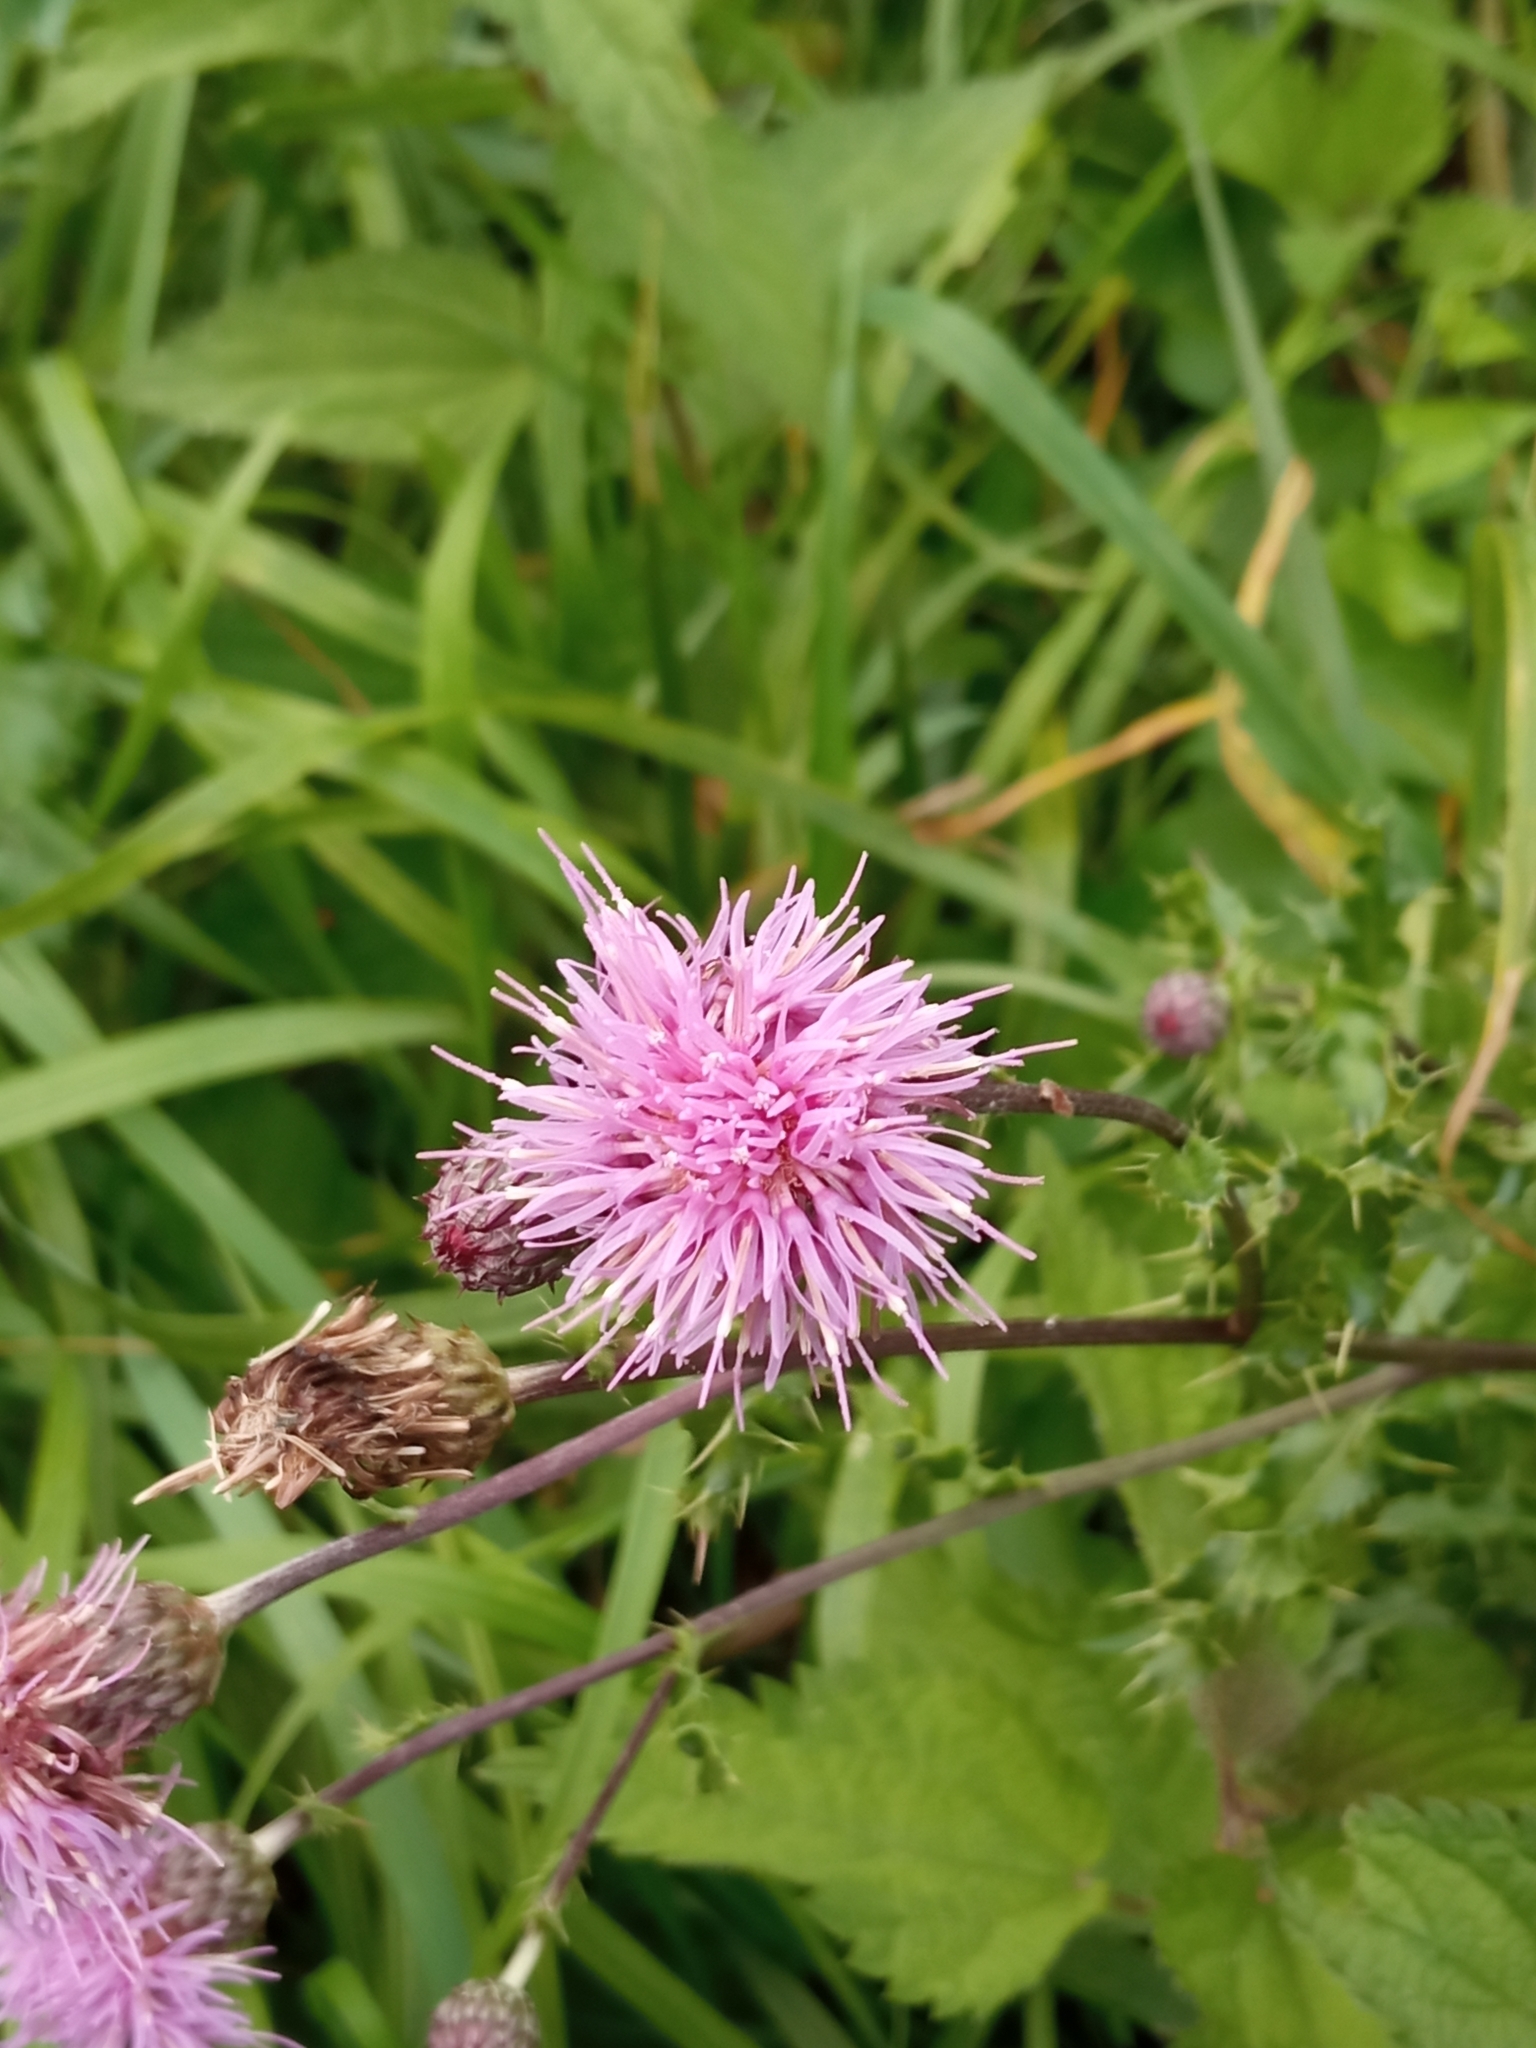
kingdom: Plantae
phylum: Tracheophyta
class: Magnoliopsida
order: Asterales
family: Asteraceae
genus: Cirsium
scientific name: Cirsium arvense
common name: Creeping thistle
